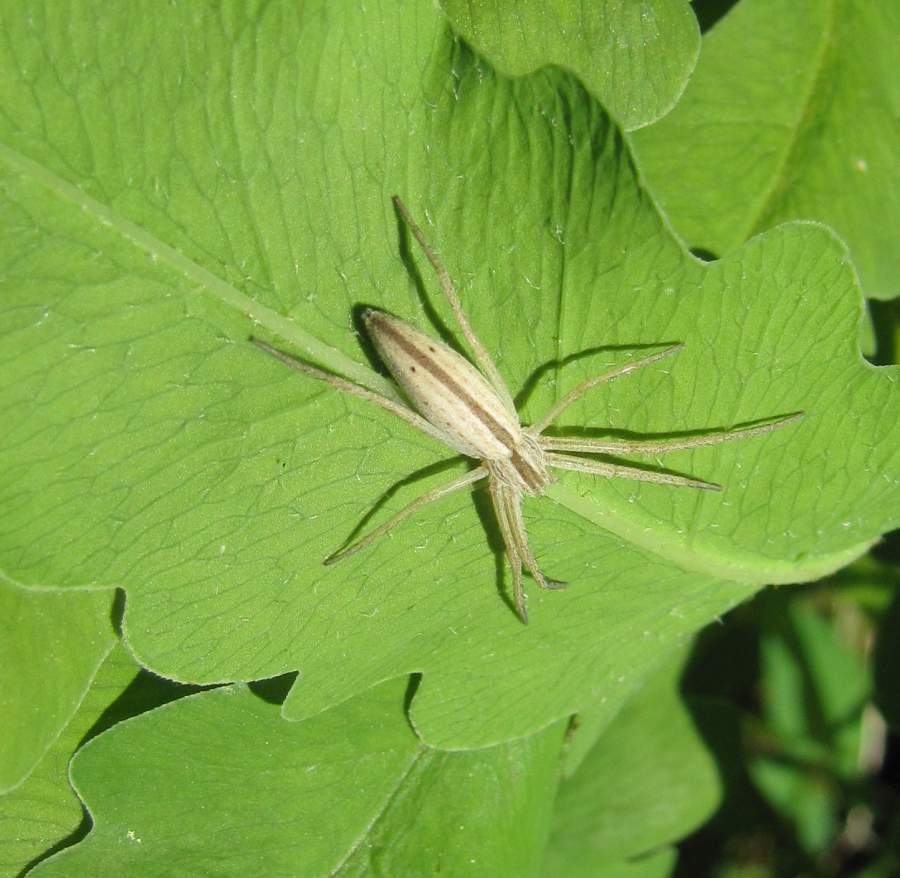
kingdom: Animalia
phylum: Arthropoda
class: Arachnida
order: Araneae
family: Philodromidae
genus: Tibellus
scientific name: Tibellus oblongus
